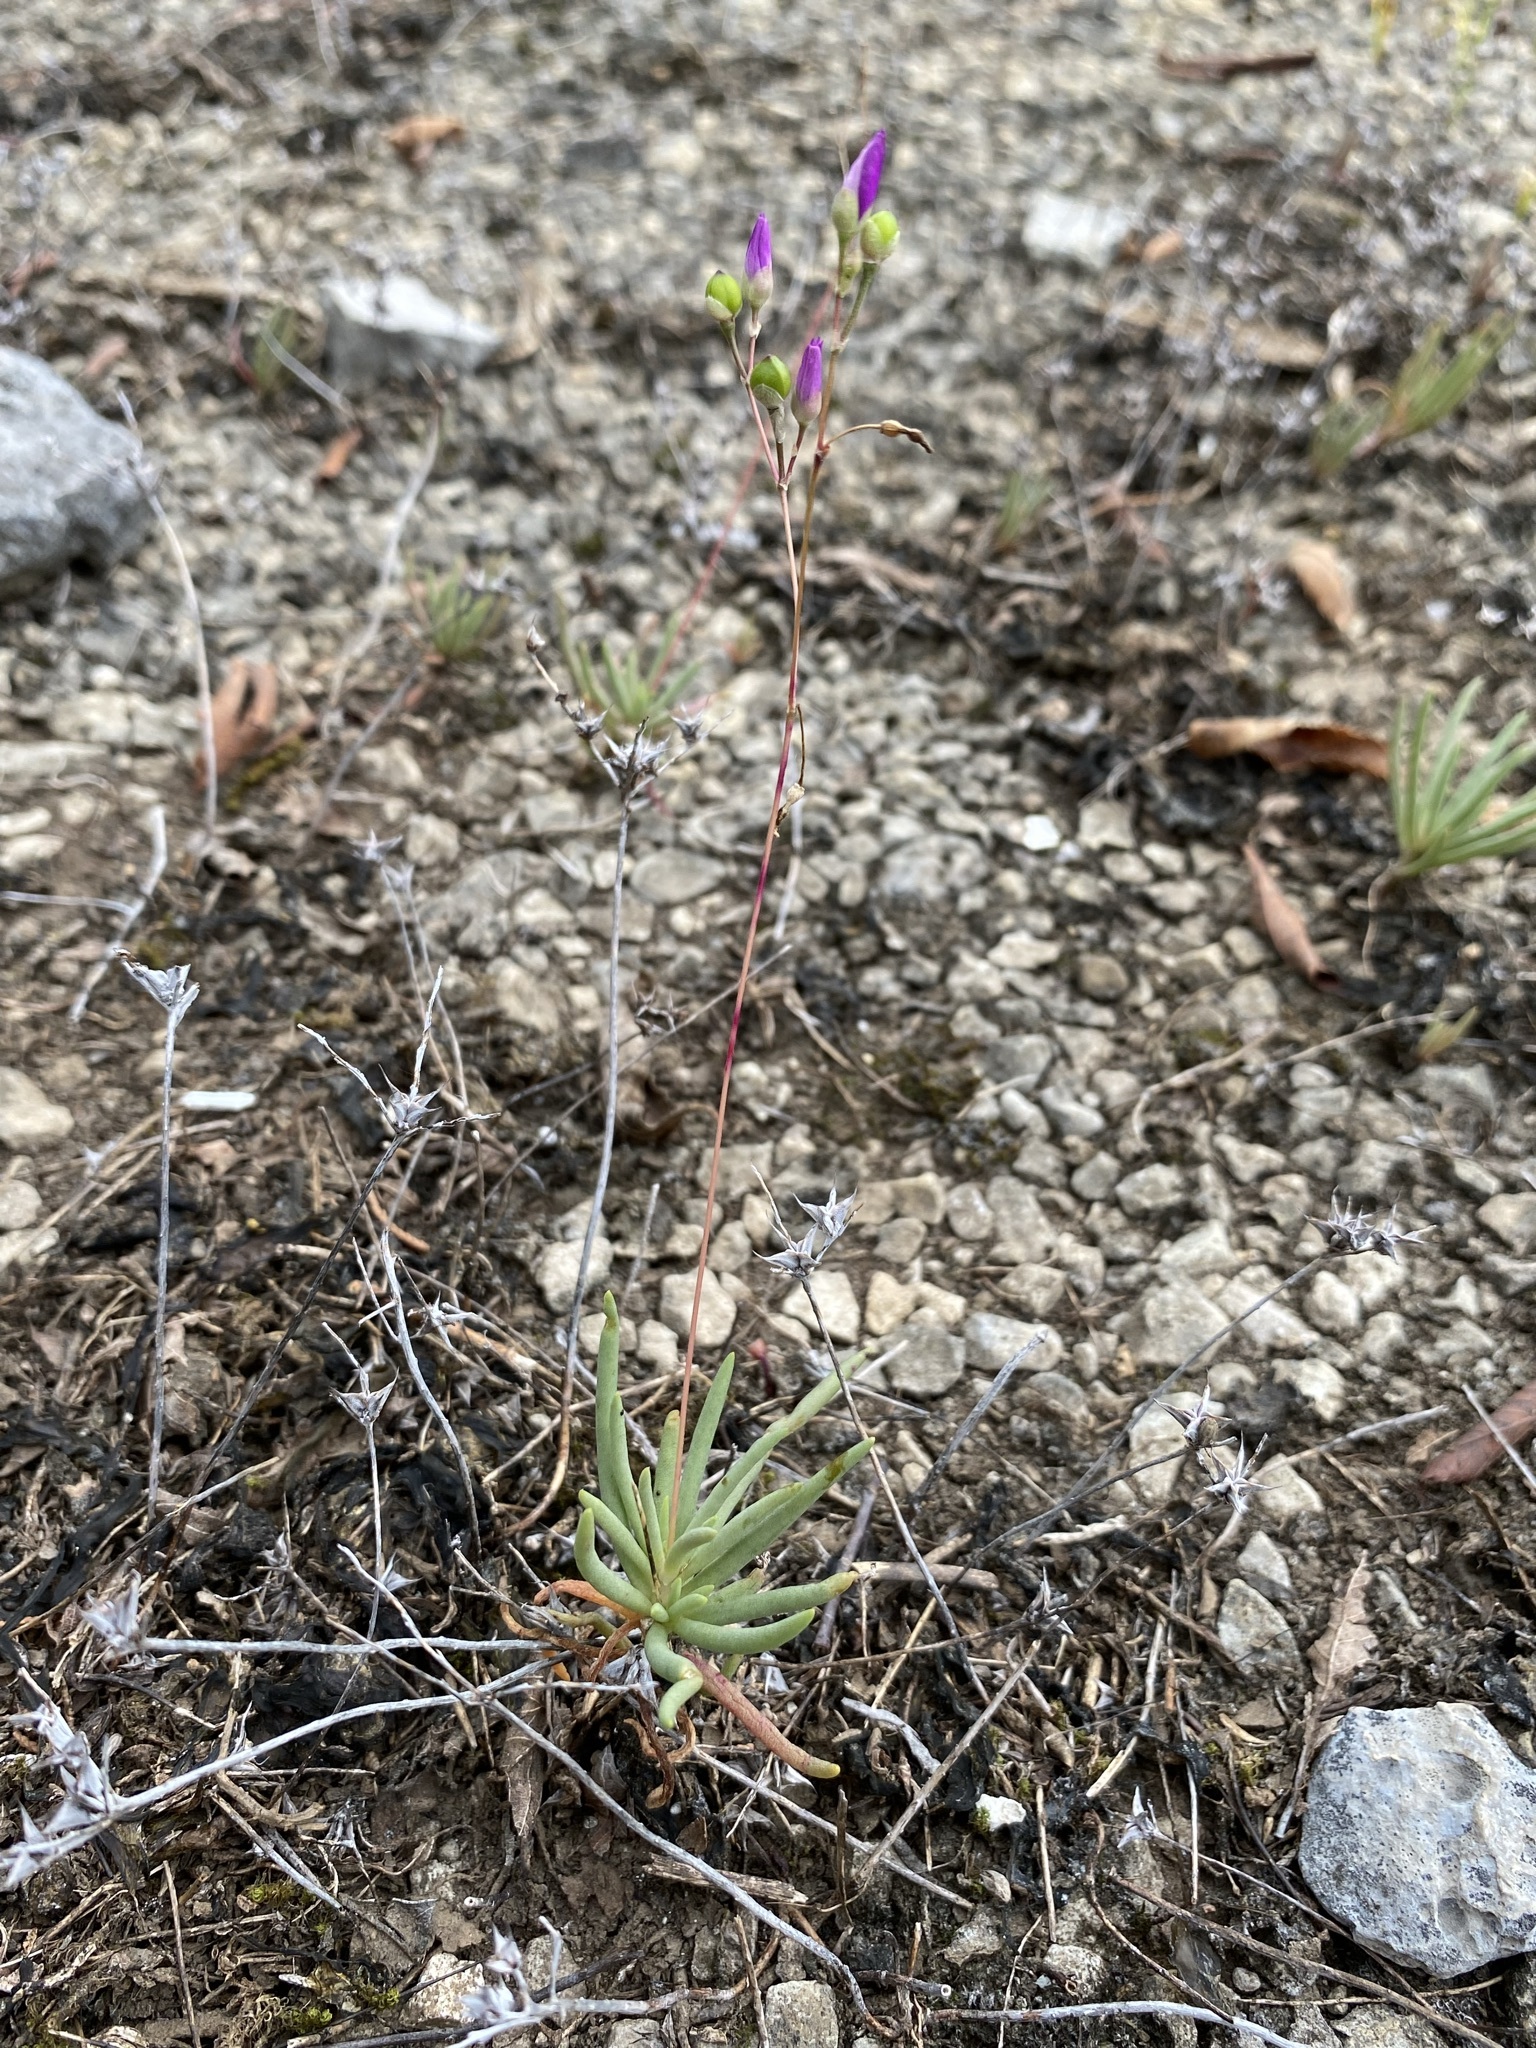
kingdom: Plantae
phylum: Tracheophyta
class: Magnoliopsida
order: Caryophyllales
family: Montiaceae
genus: Phemeranthus
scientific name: Phemeranthus calcaricus
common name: Limestone fameflower
